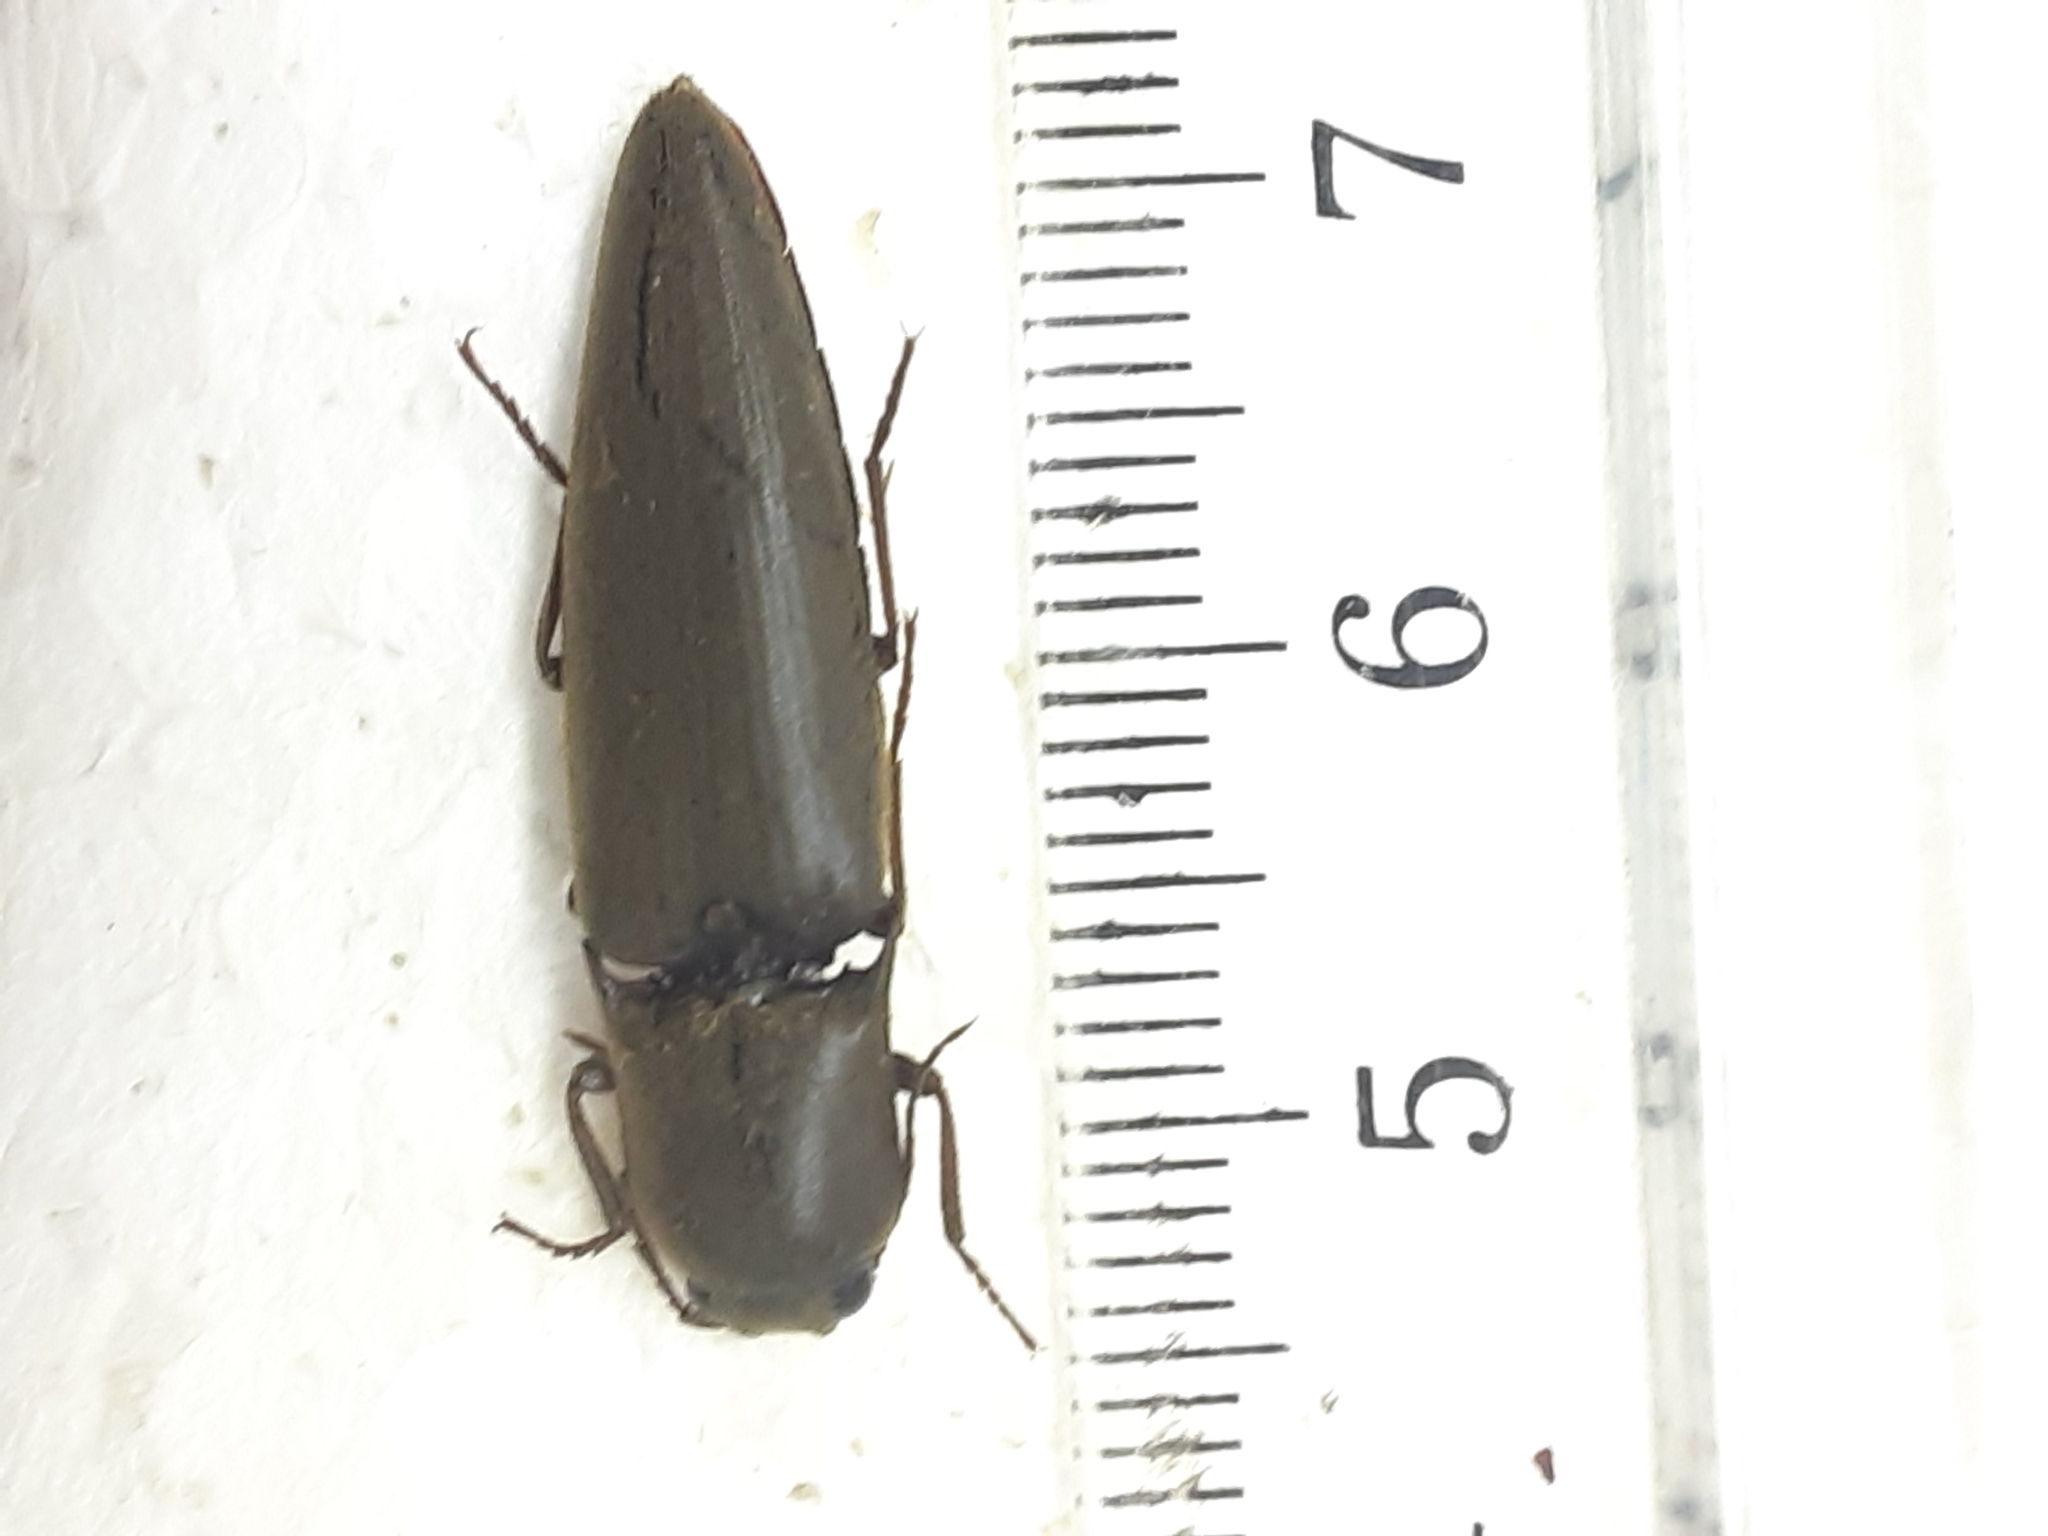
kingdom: Animalia
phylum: Arthropoda
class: Insecta
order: Coleoptera
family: Elateridae
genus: Orthostethus
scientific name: Orthostethus infuscatus
